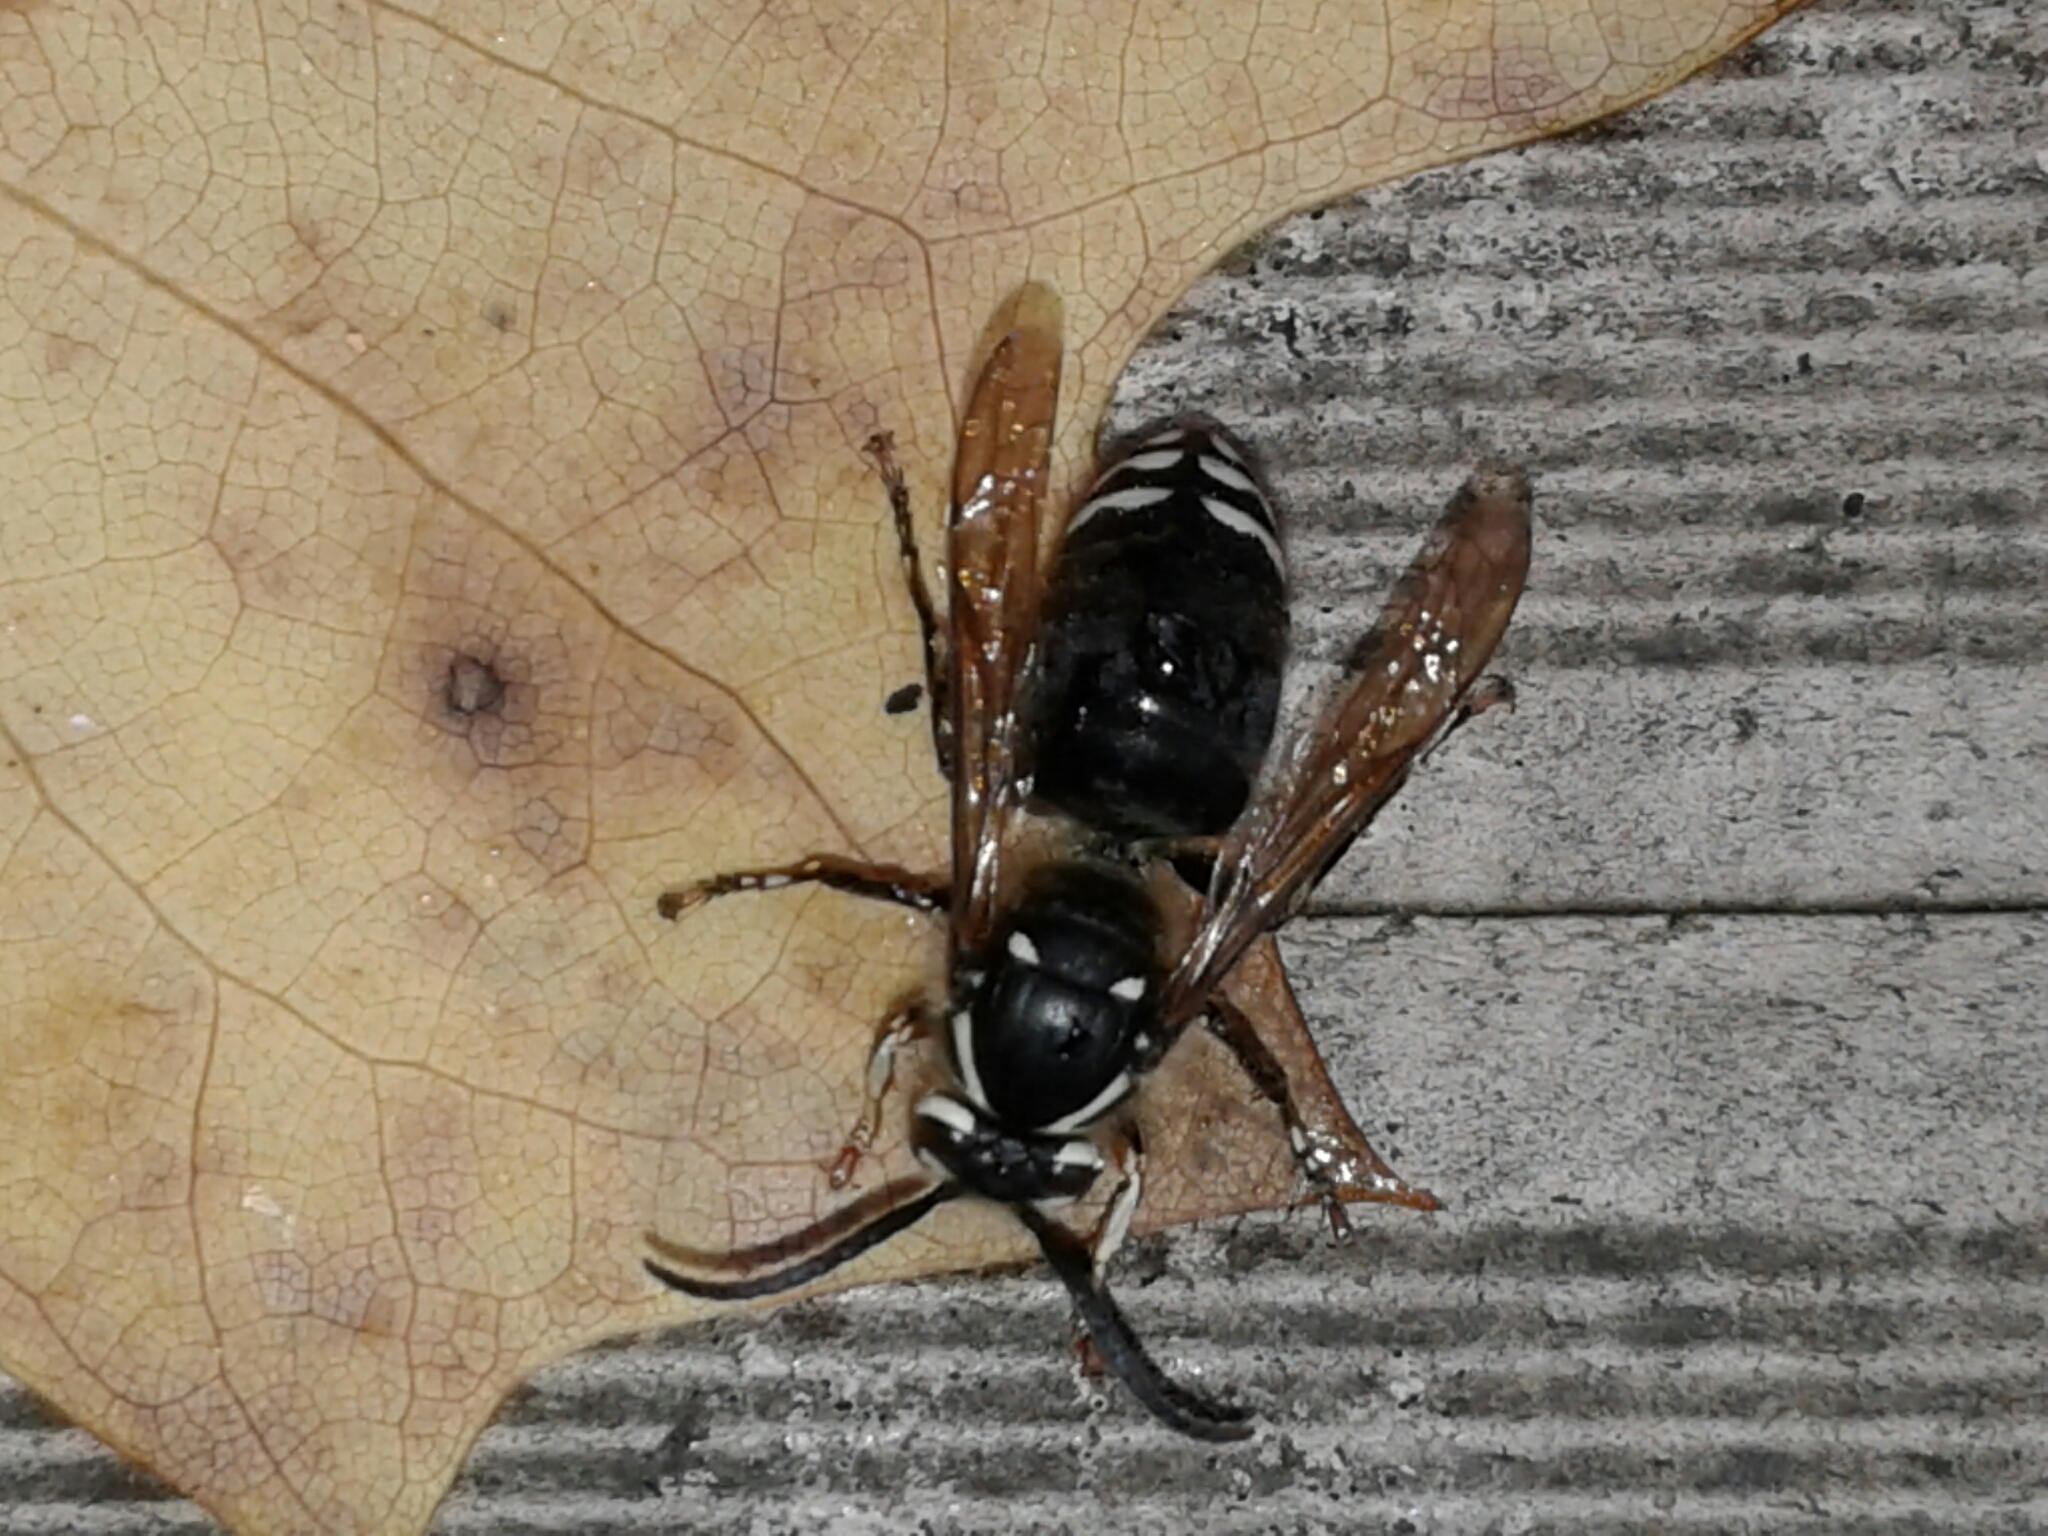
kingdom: Animalia
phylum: Arthropoda
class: Insecta
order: Hymenoptera
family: Vespidae
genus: Dolichovespula
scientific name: Dolichovespula maculata
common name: Bald-faced hornet
